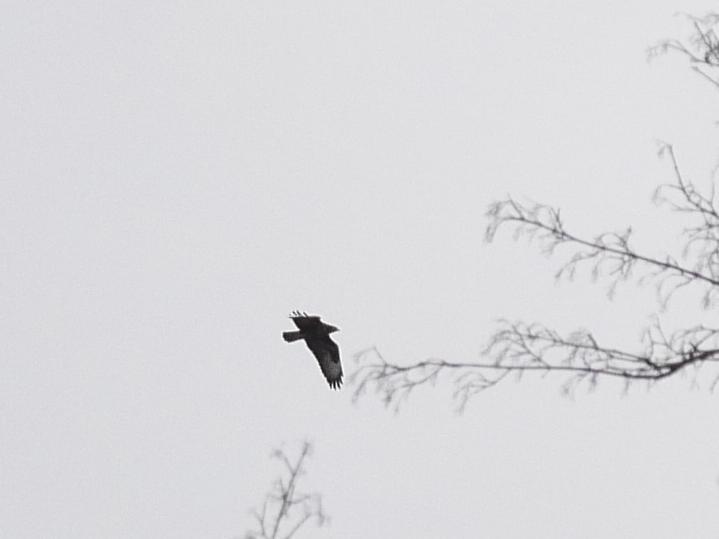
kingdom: Animalia
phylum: Chordata
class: Aves
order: Accipitriformes
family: Accipitridae
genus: Buteo
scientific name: Buteo buteo
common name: Common buzzard
